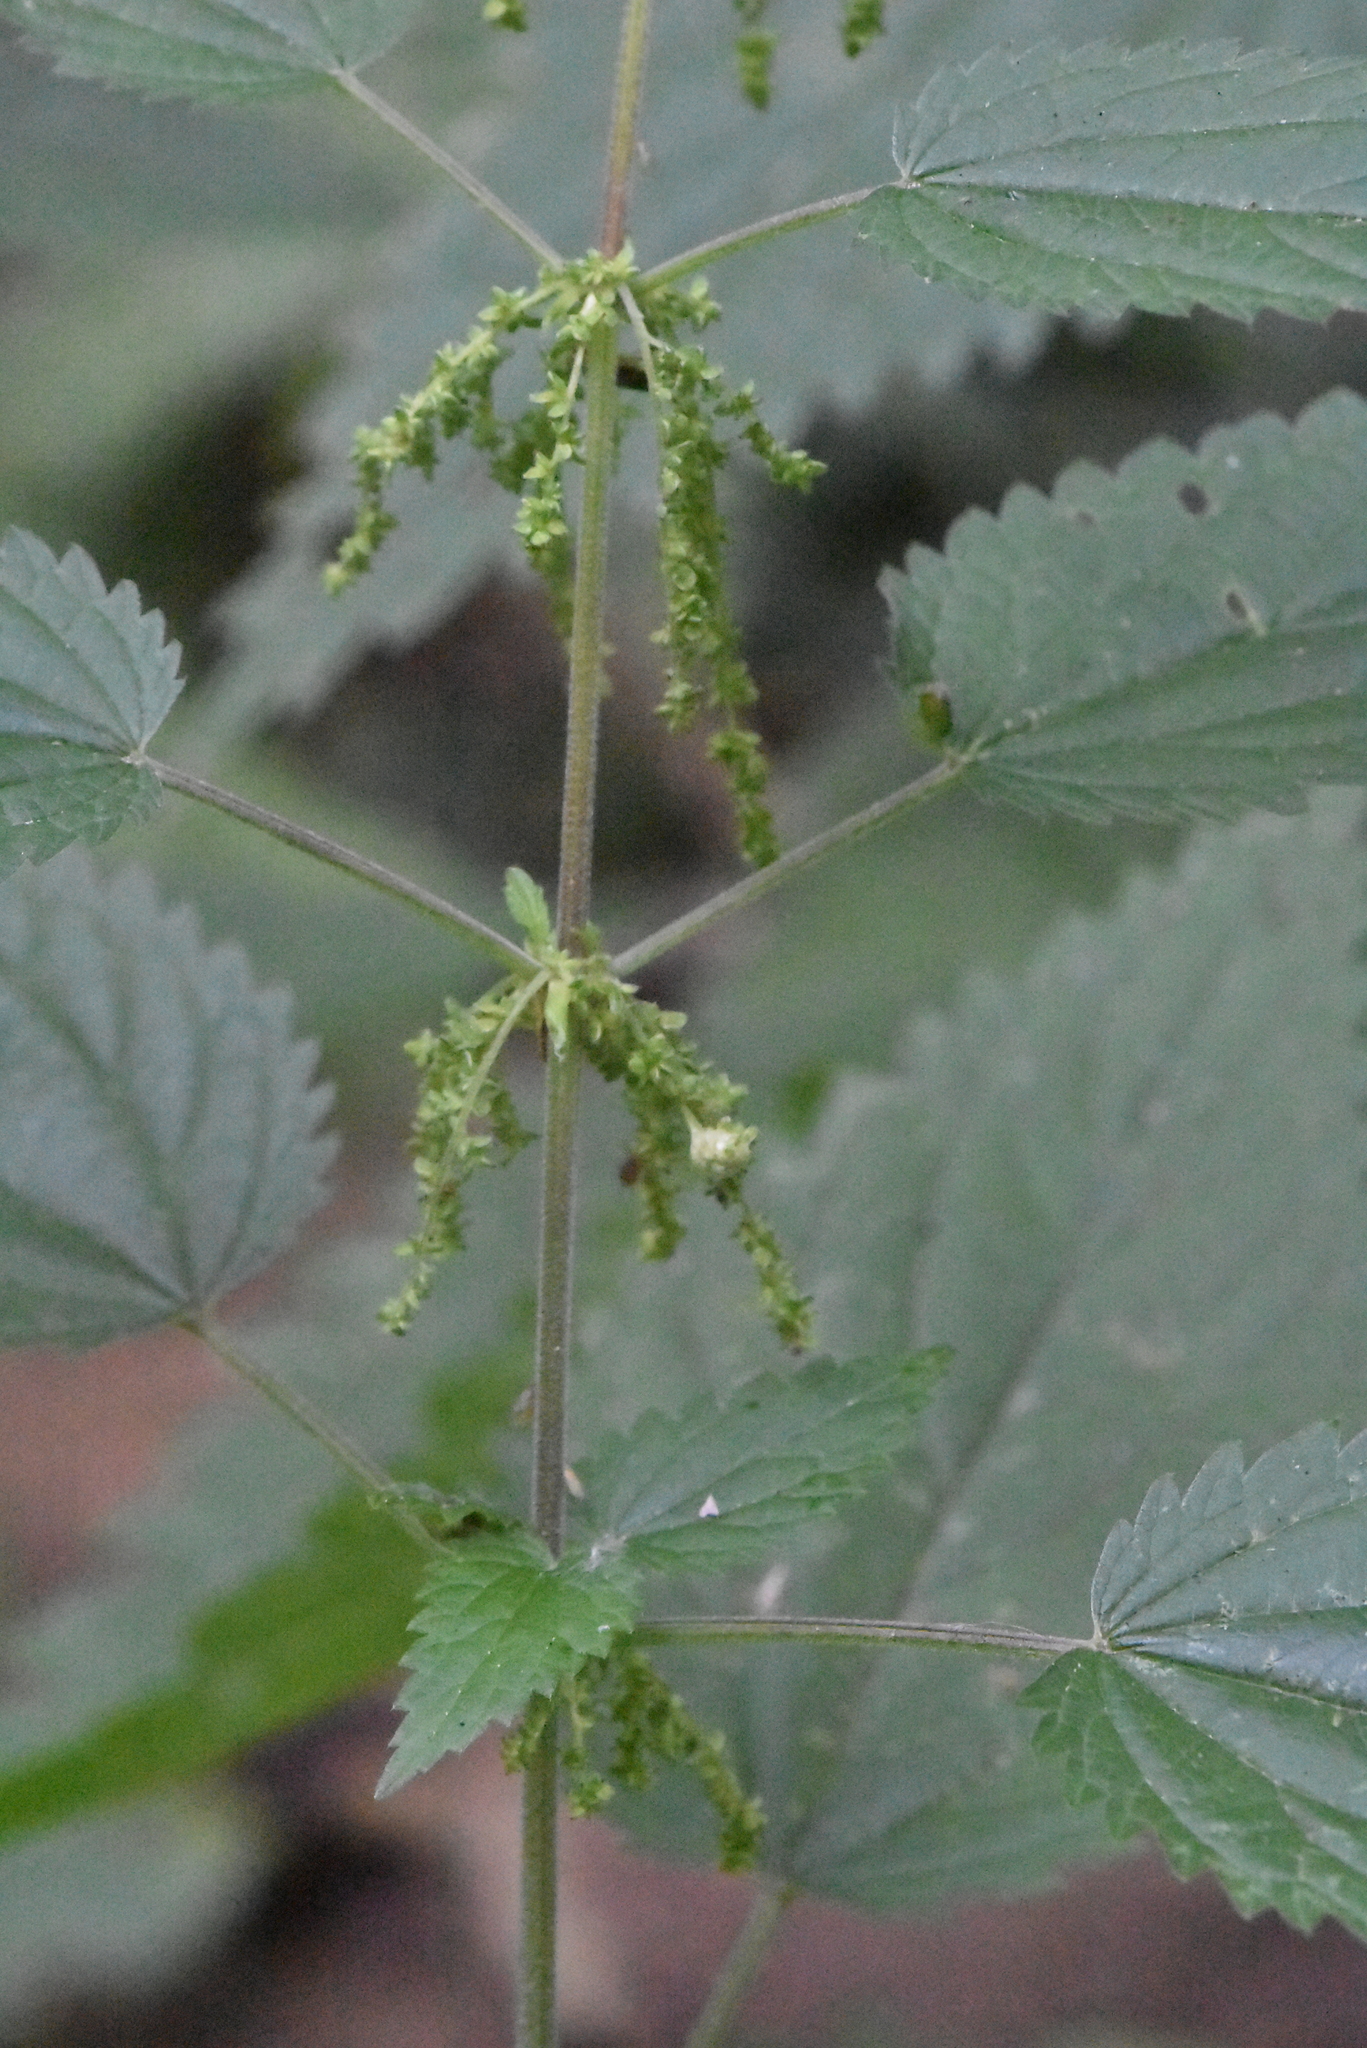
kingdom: Plantae
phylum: Tracheophyta
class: Magnoliopsida
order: Rosales
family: Urticaceae
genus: Urtica
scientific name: Urtica dioica
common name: Common nettle
